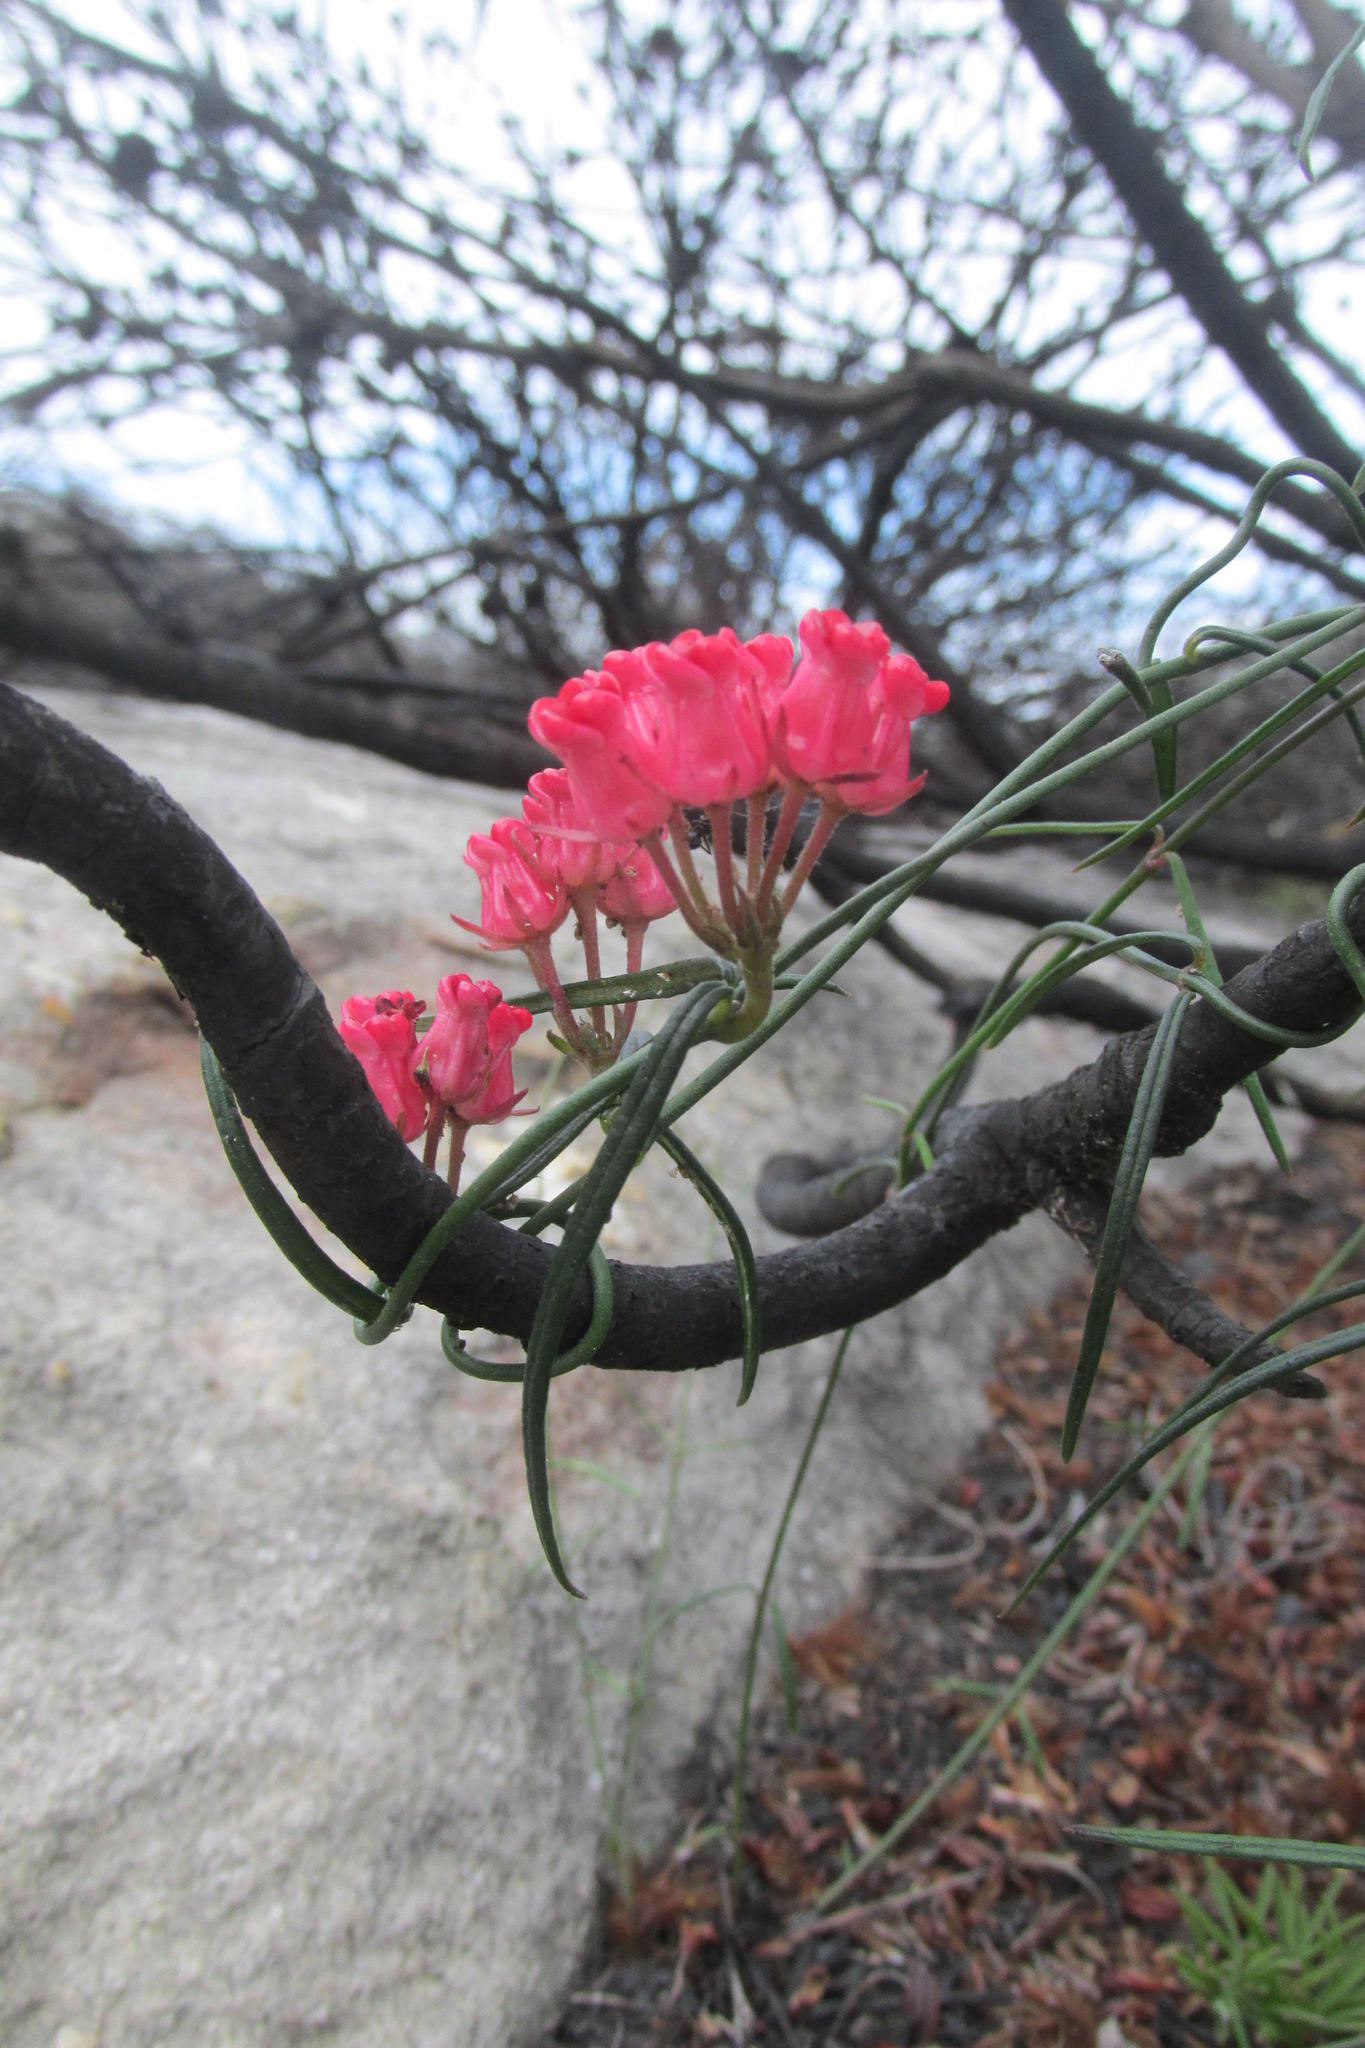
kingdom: Plantae
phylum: Tracheophyta
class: Magnoliopsida
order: Gentianales
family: Apocynaceae
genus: Microloma
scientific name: Microloma tenuifolium
